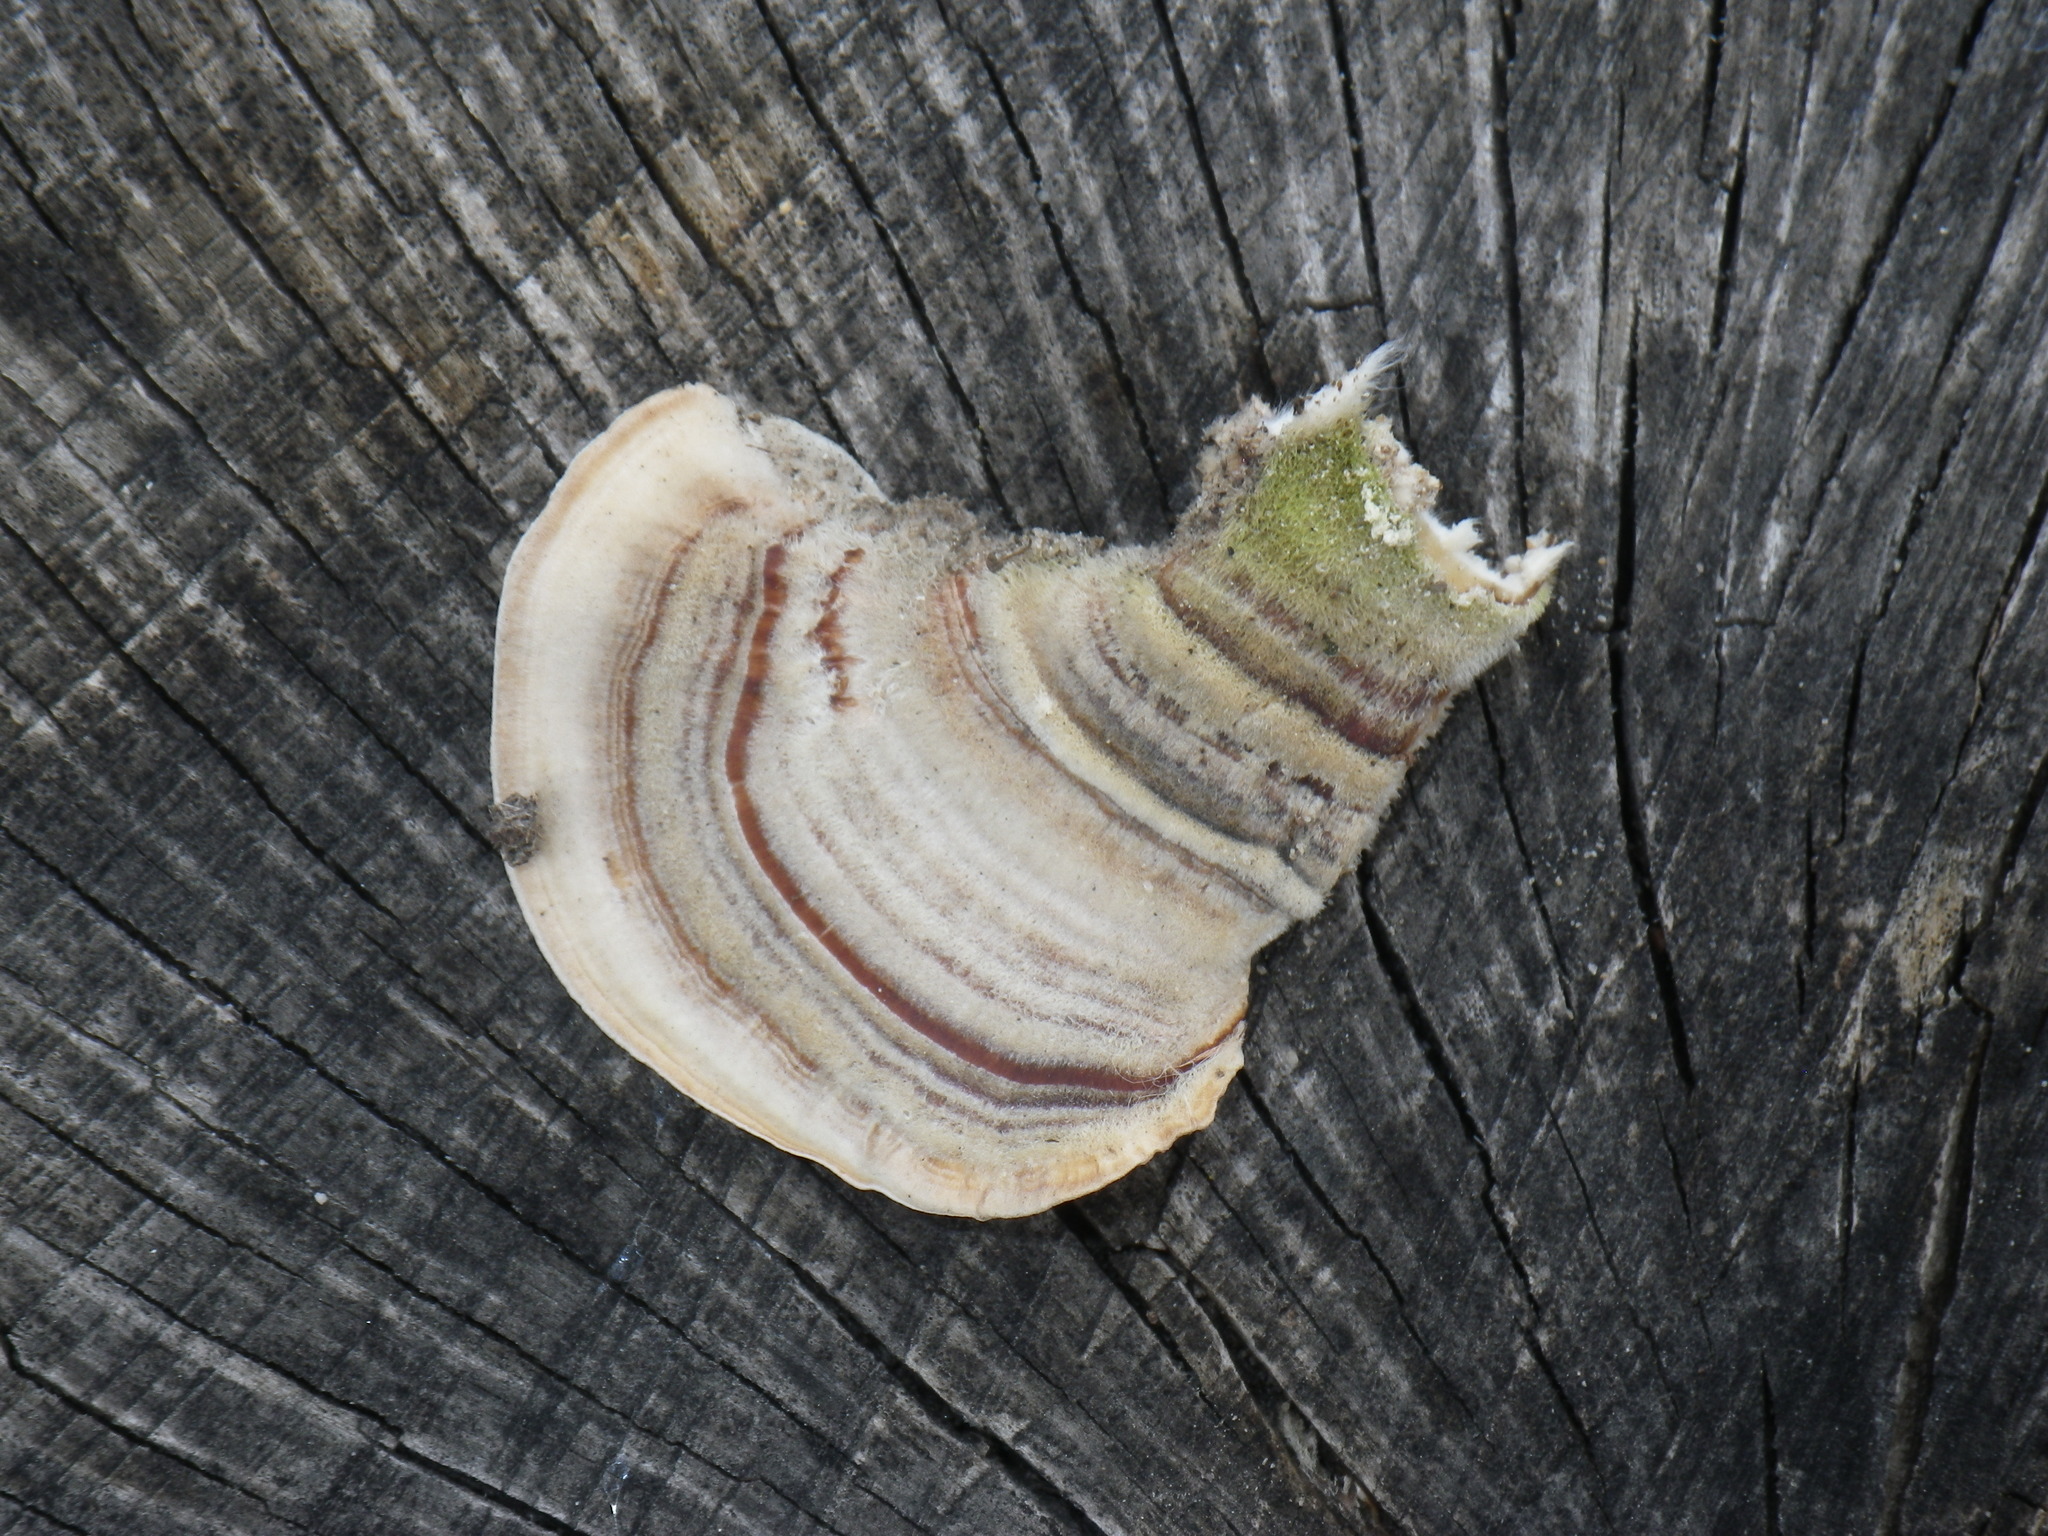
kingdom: Fungi
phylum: Basidiomycota
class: Agaricomycetes
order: Polyporales
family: Polyporaceae
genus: Trametes
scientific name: Trametes versicolor
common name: Turkeytail
